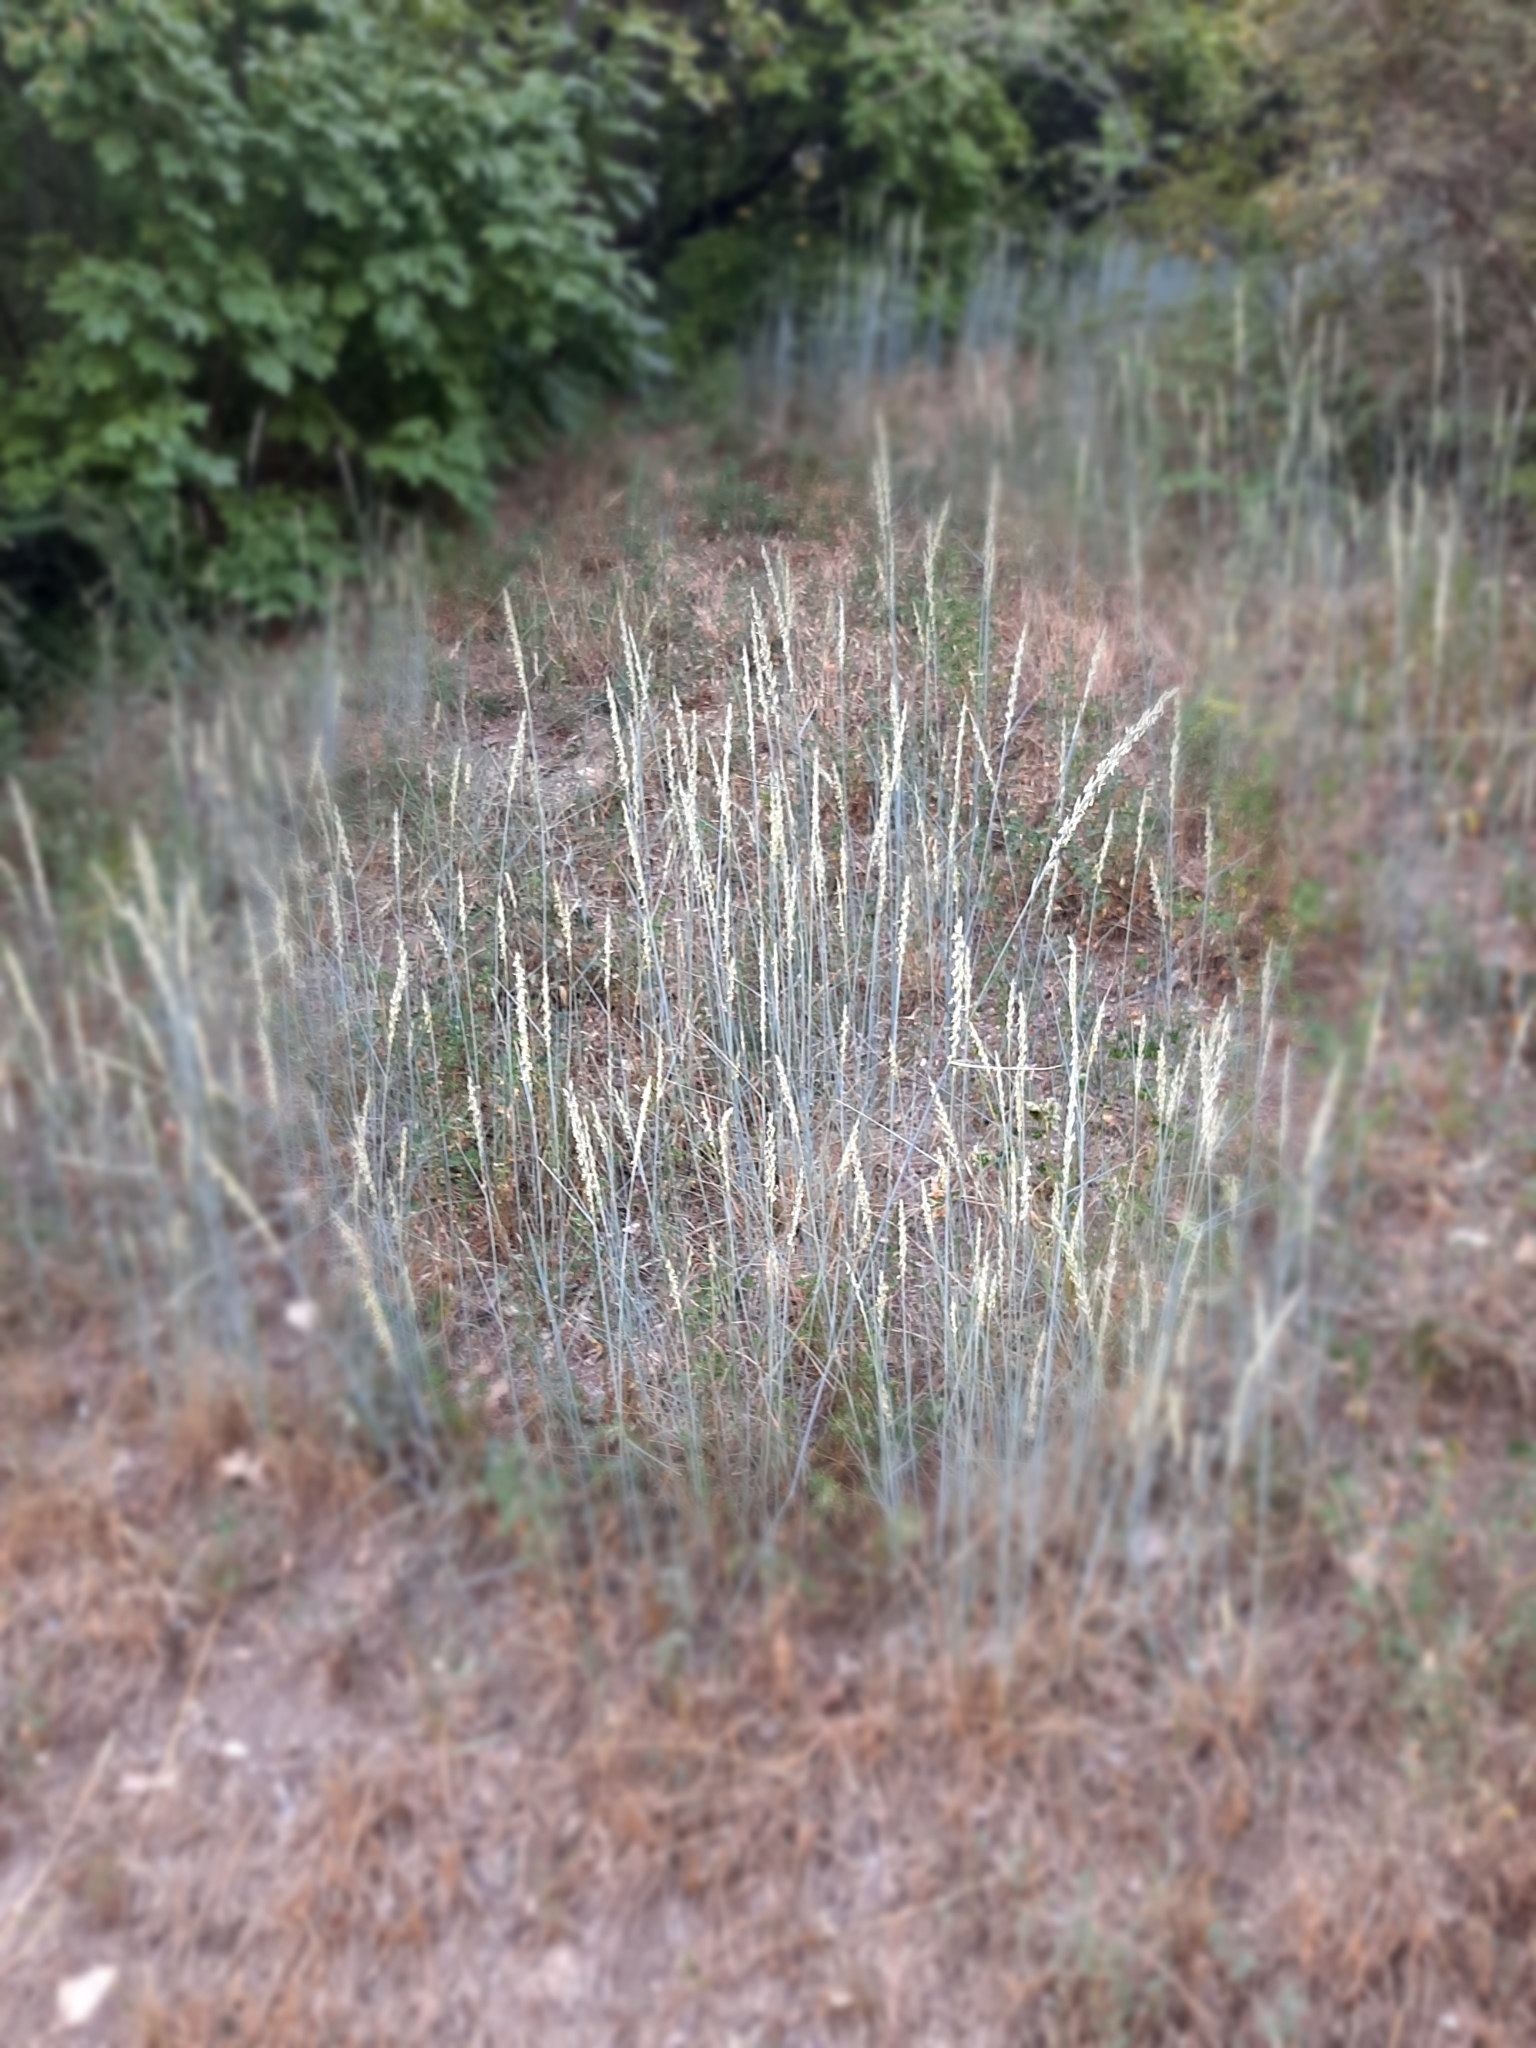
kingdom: Plantae
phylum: Tracheophyta
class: Liliopsida
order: Poales
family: Poaceae
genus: Thinopyrum
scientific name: Thinopyrum intermedium
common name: Intermediate wheatgrass
